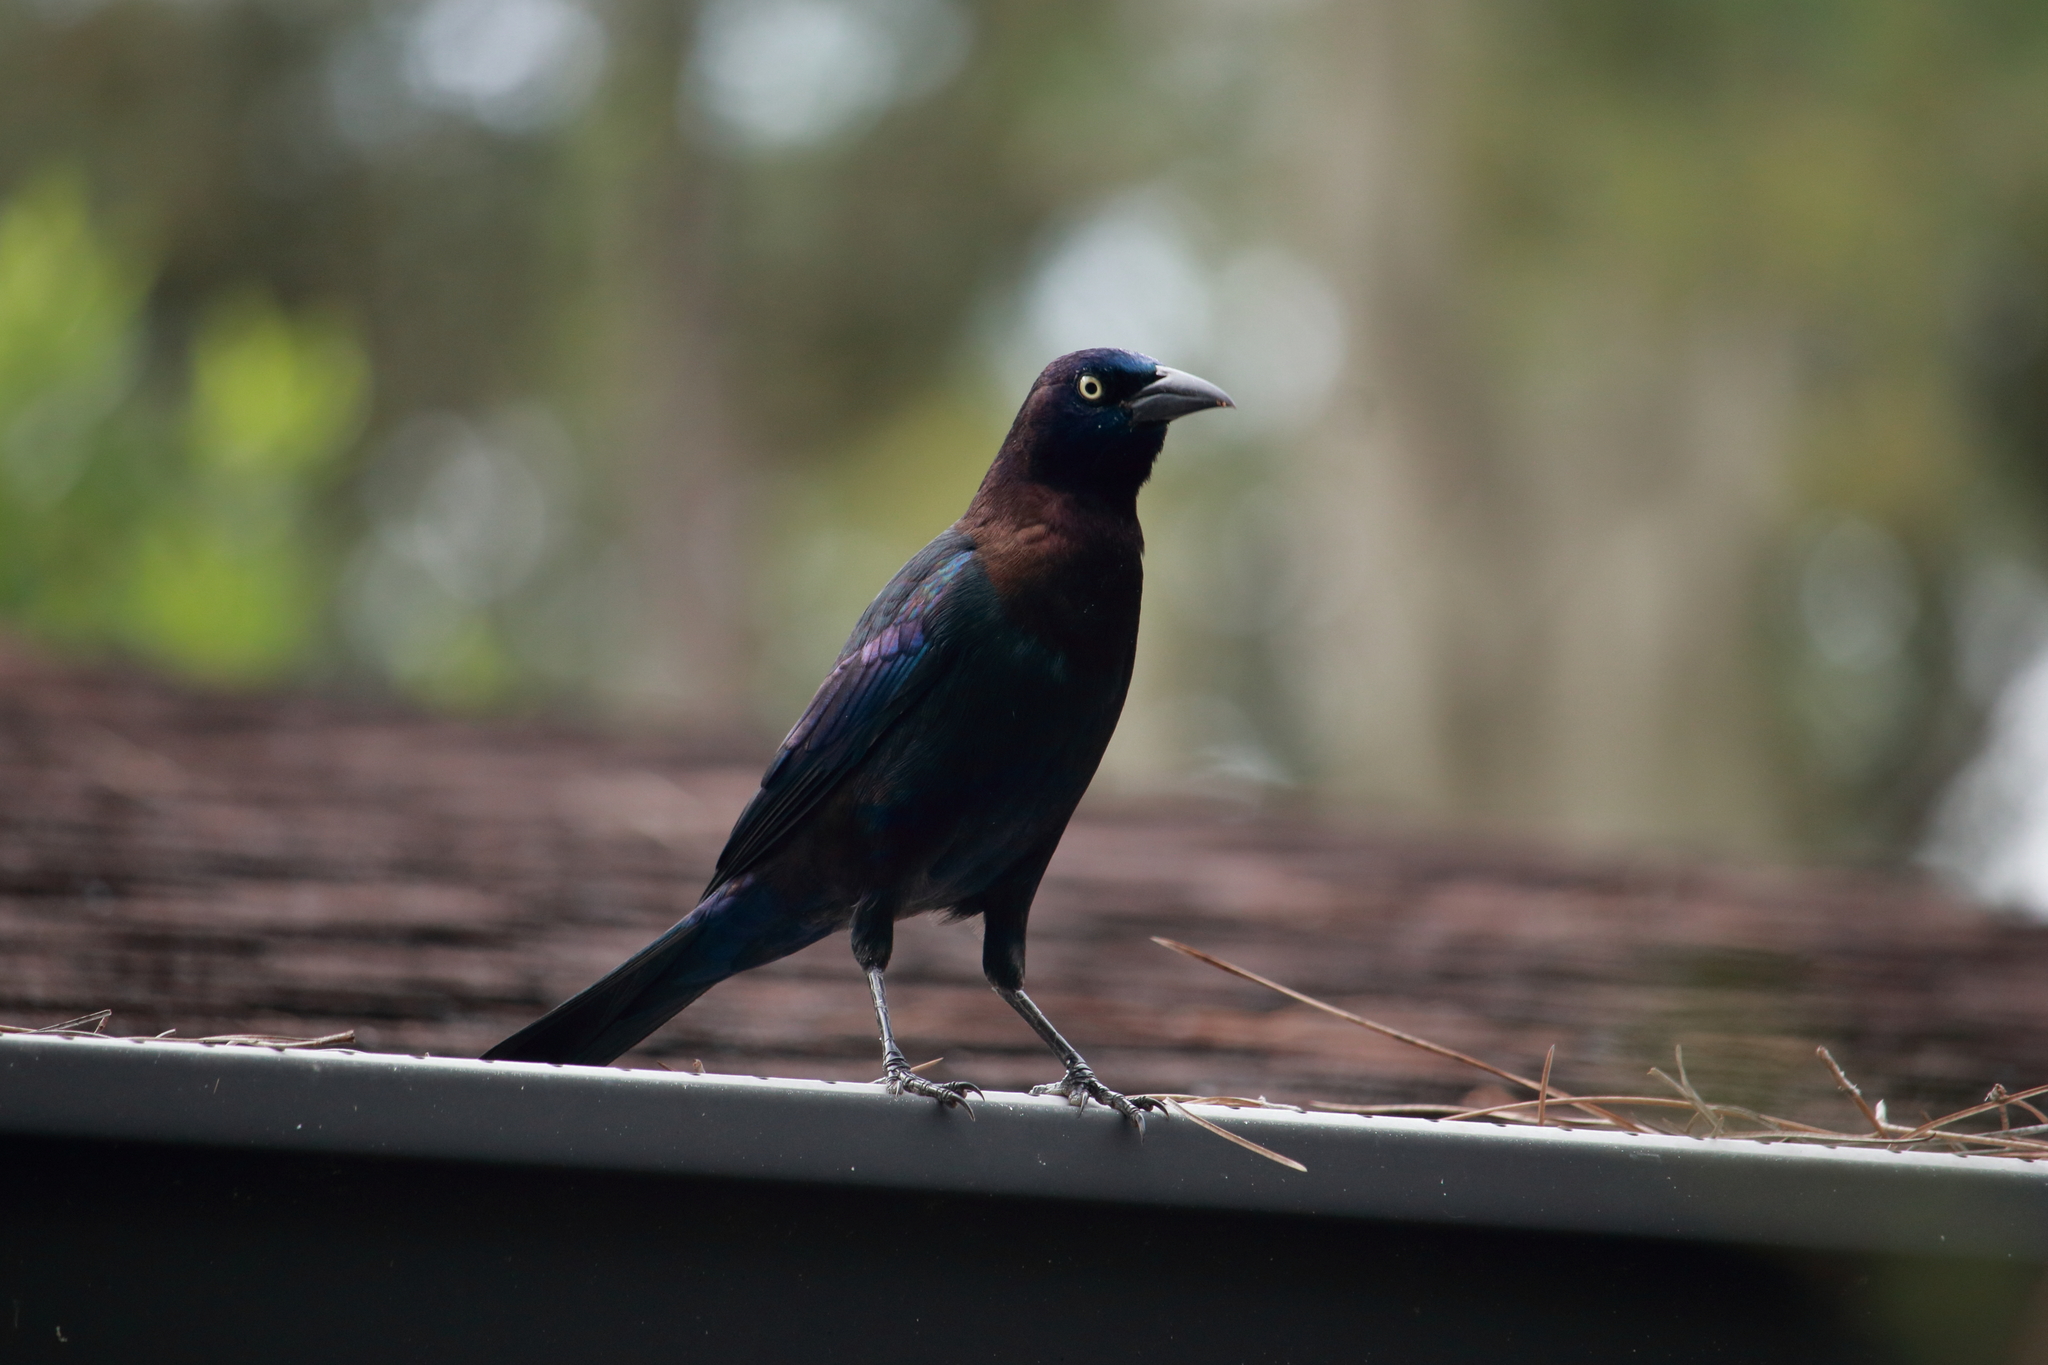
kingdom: Animalia
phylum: Chordata
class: Aves
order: Passeriformes
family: Icteridae
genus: Quiscalus
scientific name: Quiscalus quiscula
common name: Common grackle
